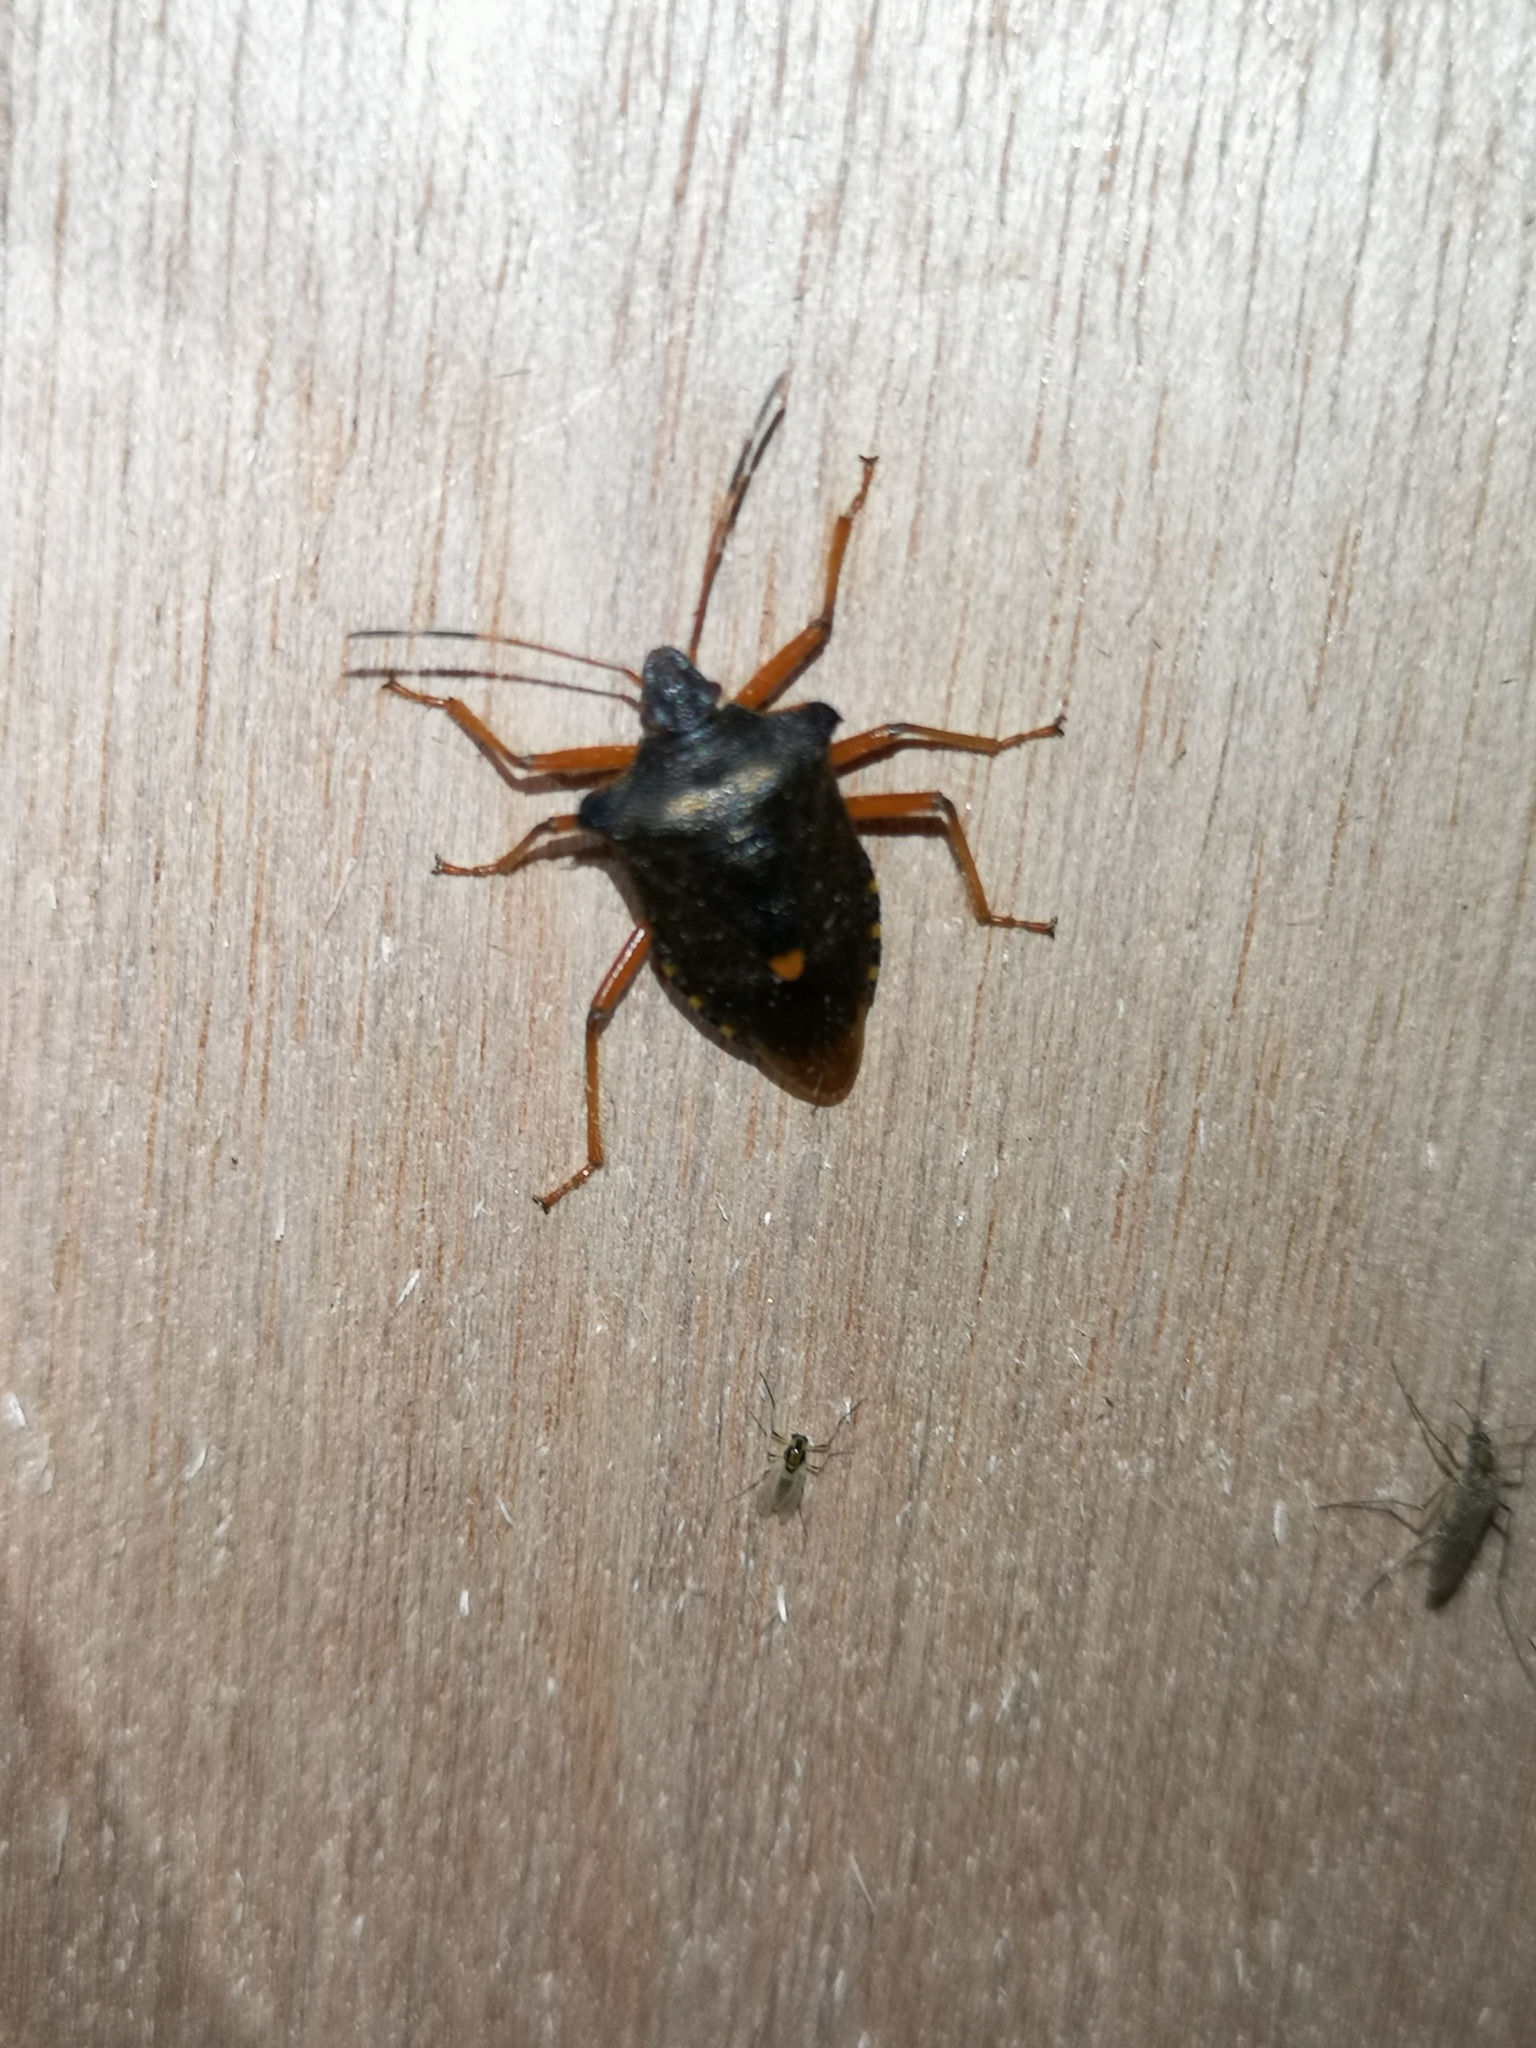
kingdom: Animalia
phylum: Arthropoda
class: Insecta
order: Hemiptera
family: Pentatomidae
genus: Pentatoma
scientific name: Pentatoma rufipes
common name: Forest bug
